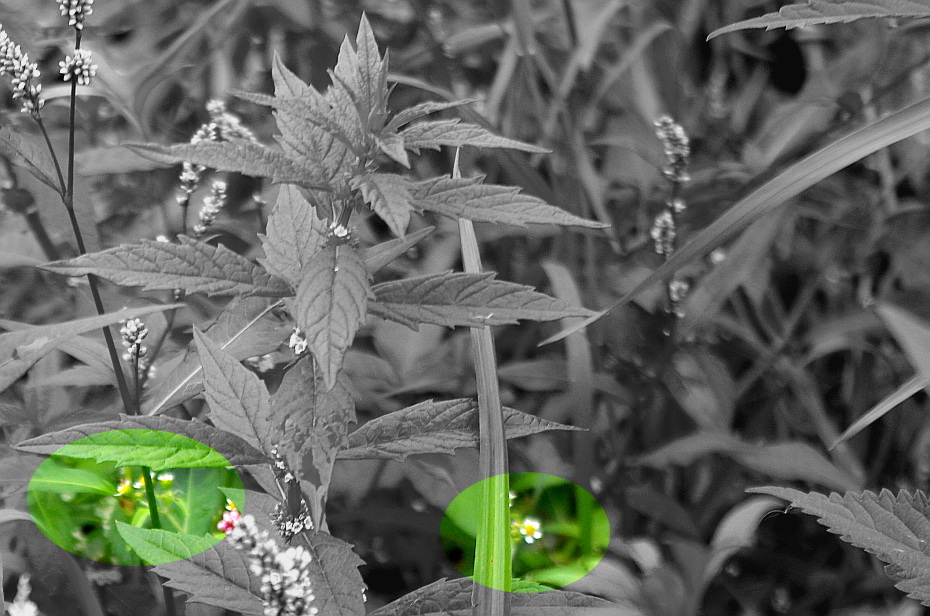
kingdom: Plantae
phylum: Tracheophyta
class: Magnoliopsida
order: Asterales
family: Asteraceae
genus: Galinsoga
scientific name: Galinsoga quadriradiata
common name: Shaggy soldier
